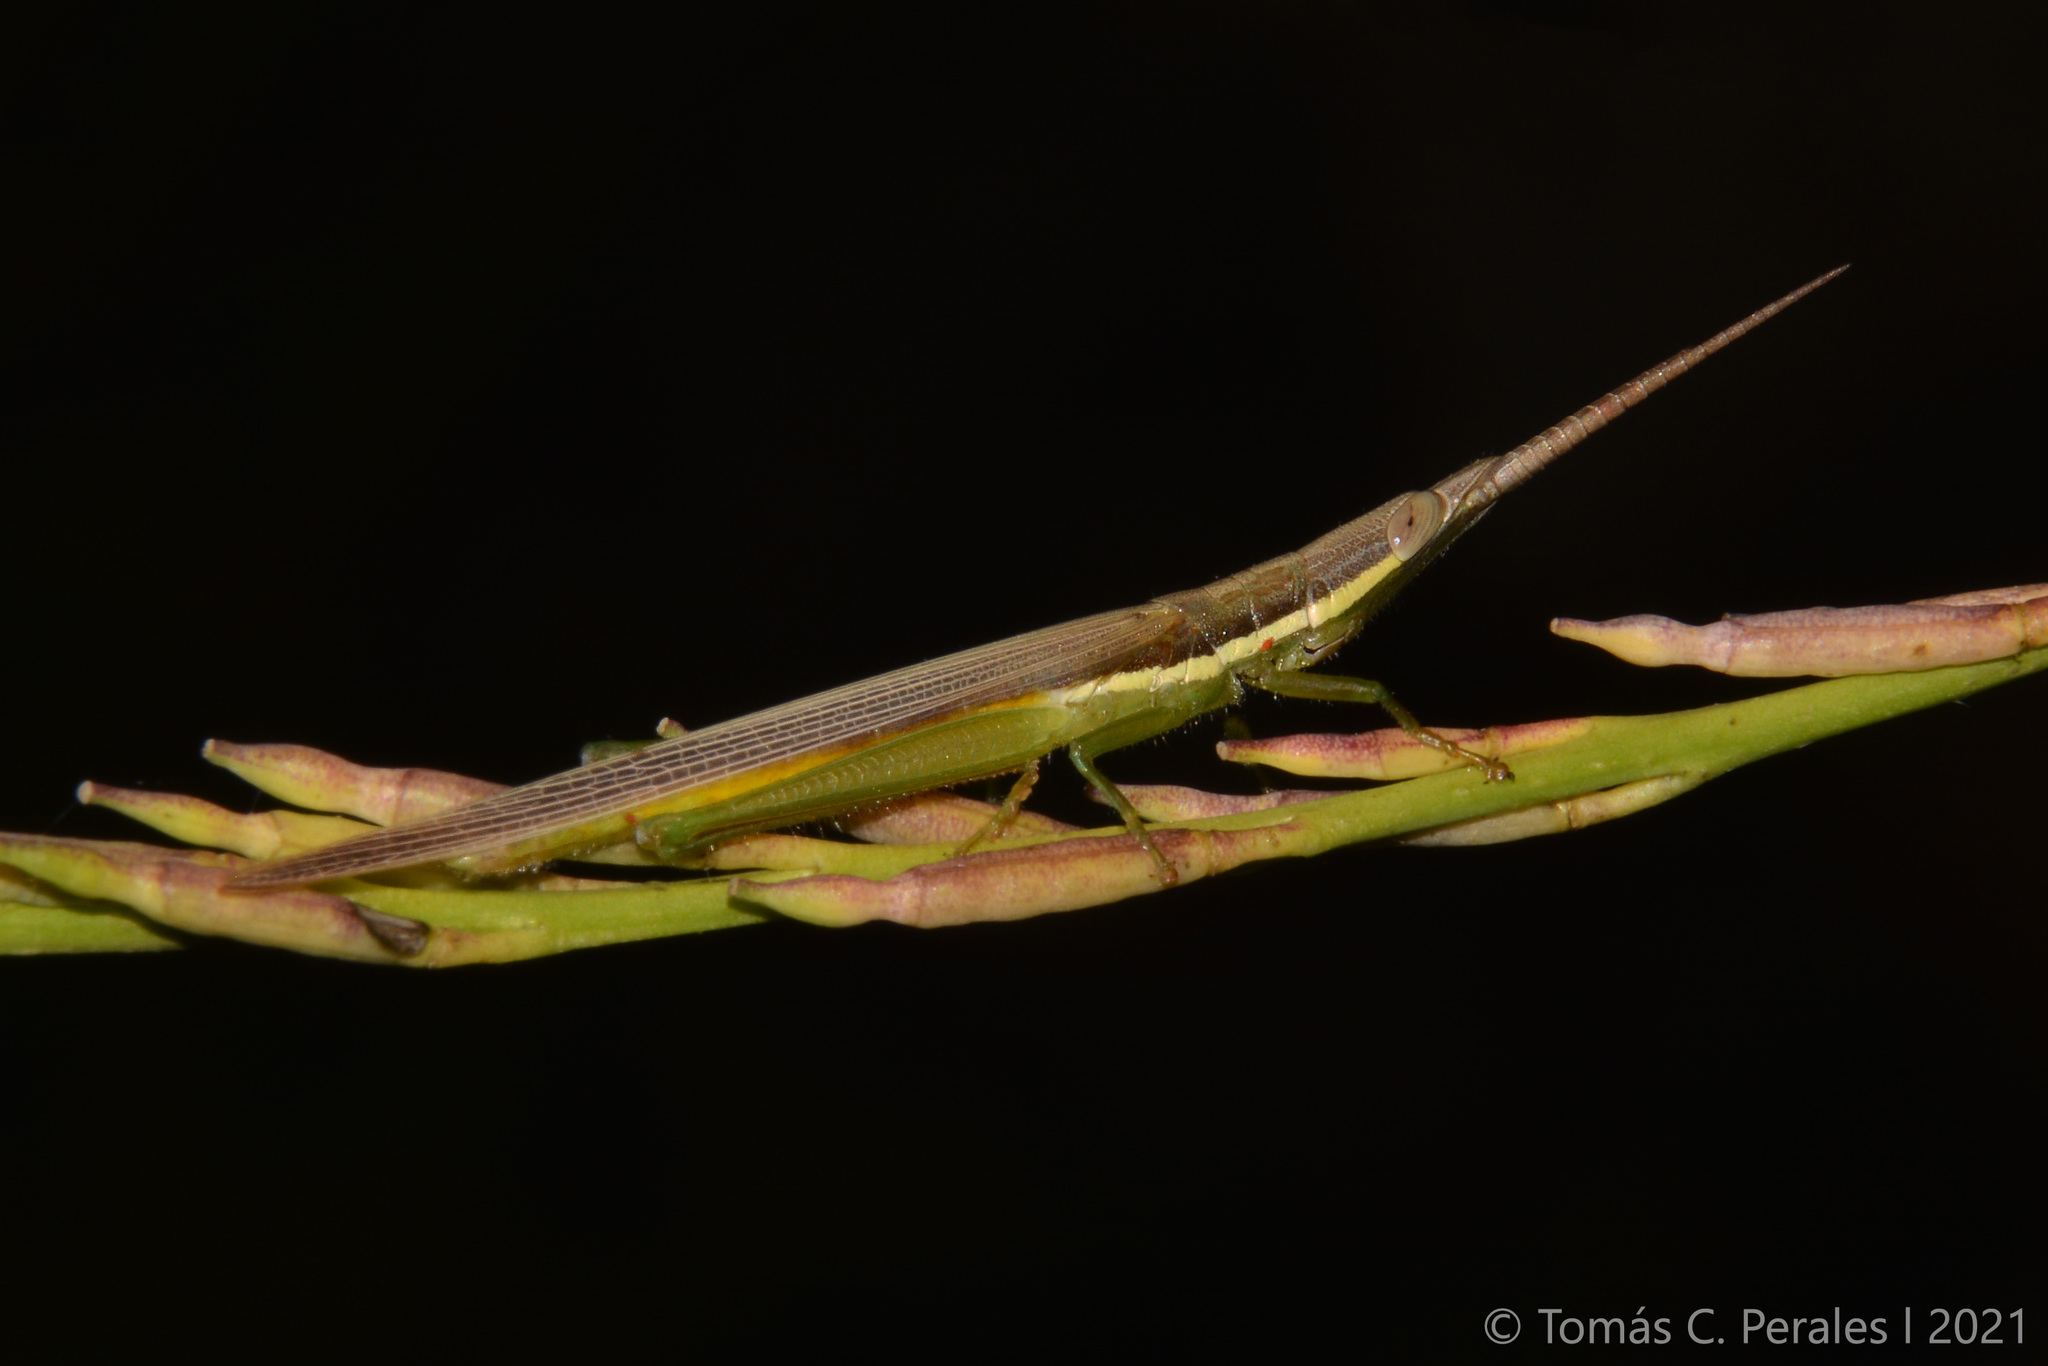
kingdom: Animalia
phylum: Arthropoda
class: Insecta
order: Orthoptera
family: Acrididae
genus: Leptysma
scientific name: Leptysma argentina
